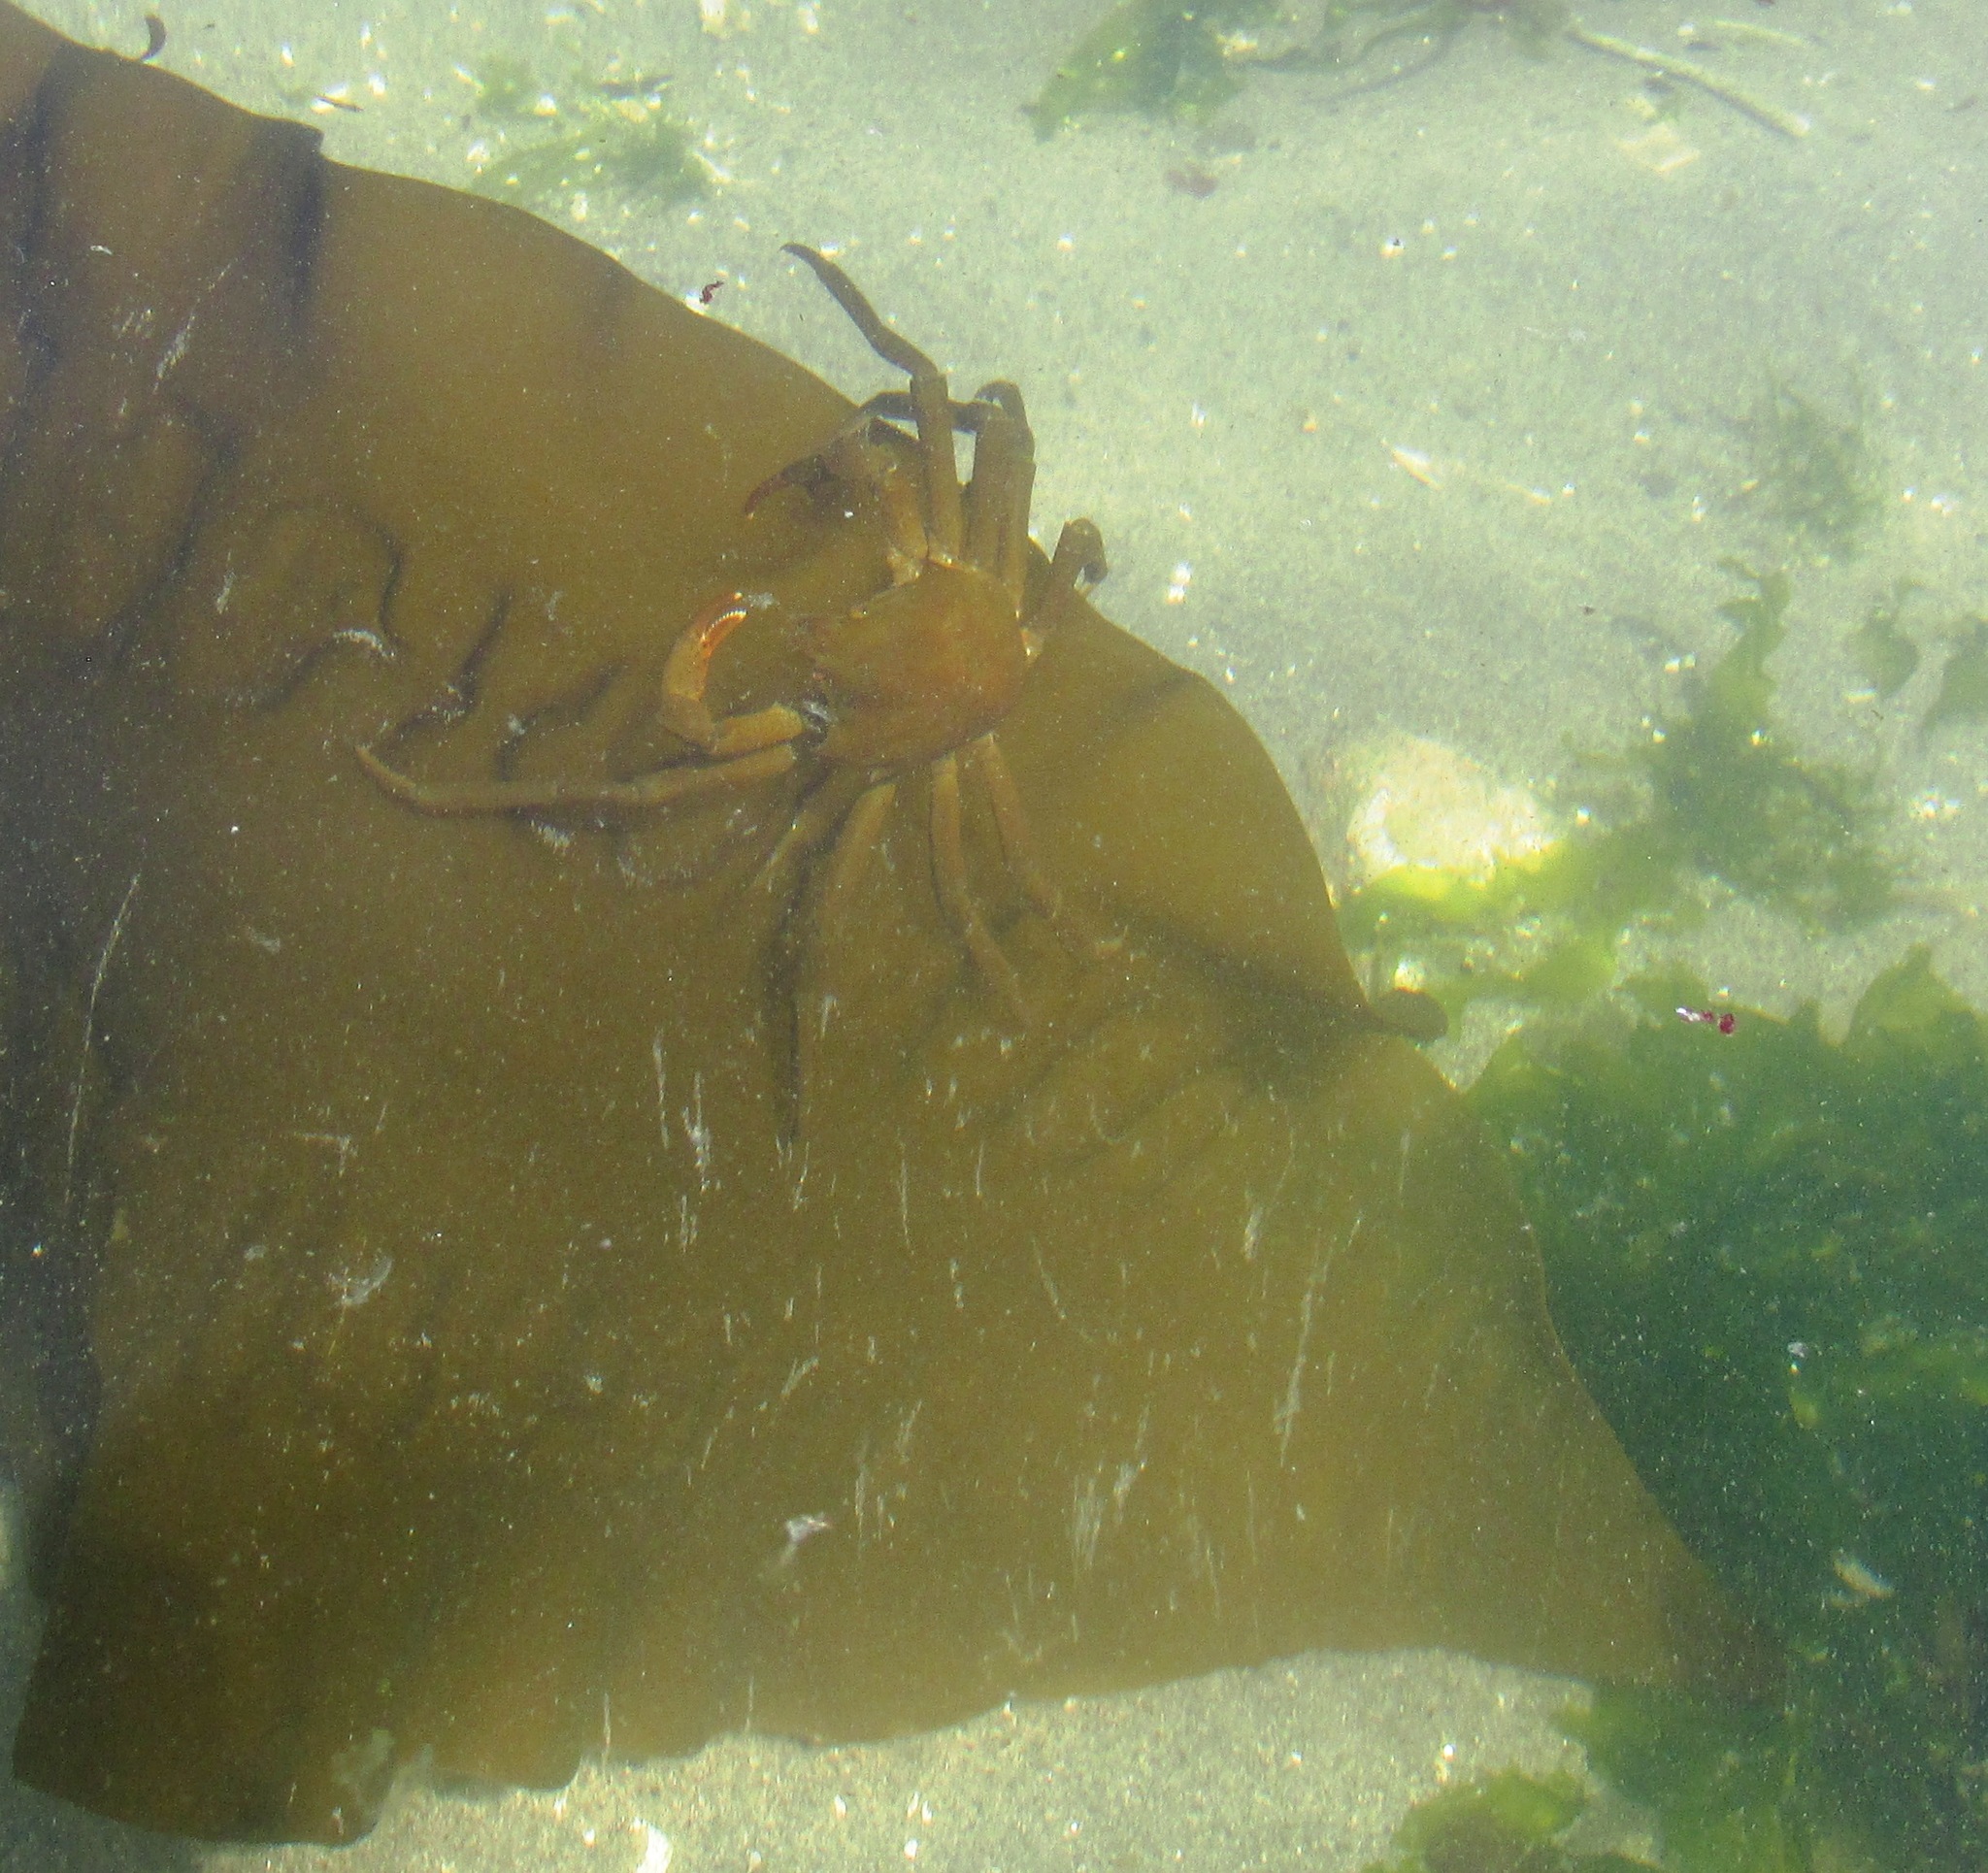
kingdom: Animalia
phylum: Arthropoda
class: Malacostraca
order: Decapoda
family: Epialtidae
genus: Pugettia
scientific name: Pugettia producta
